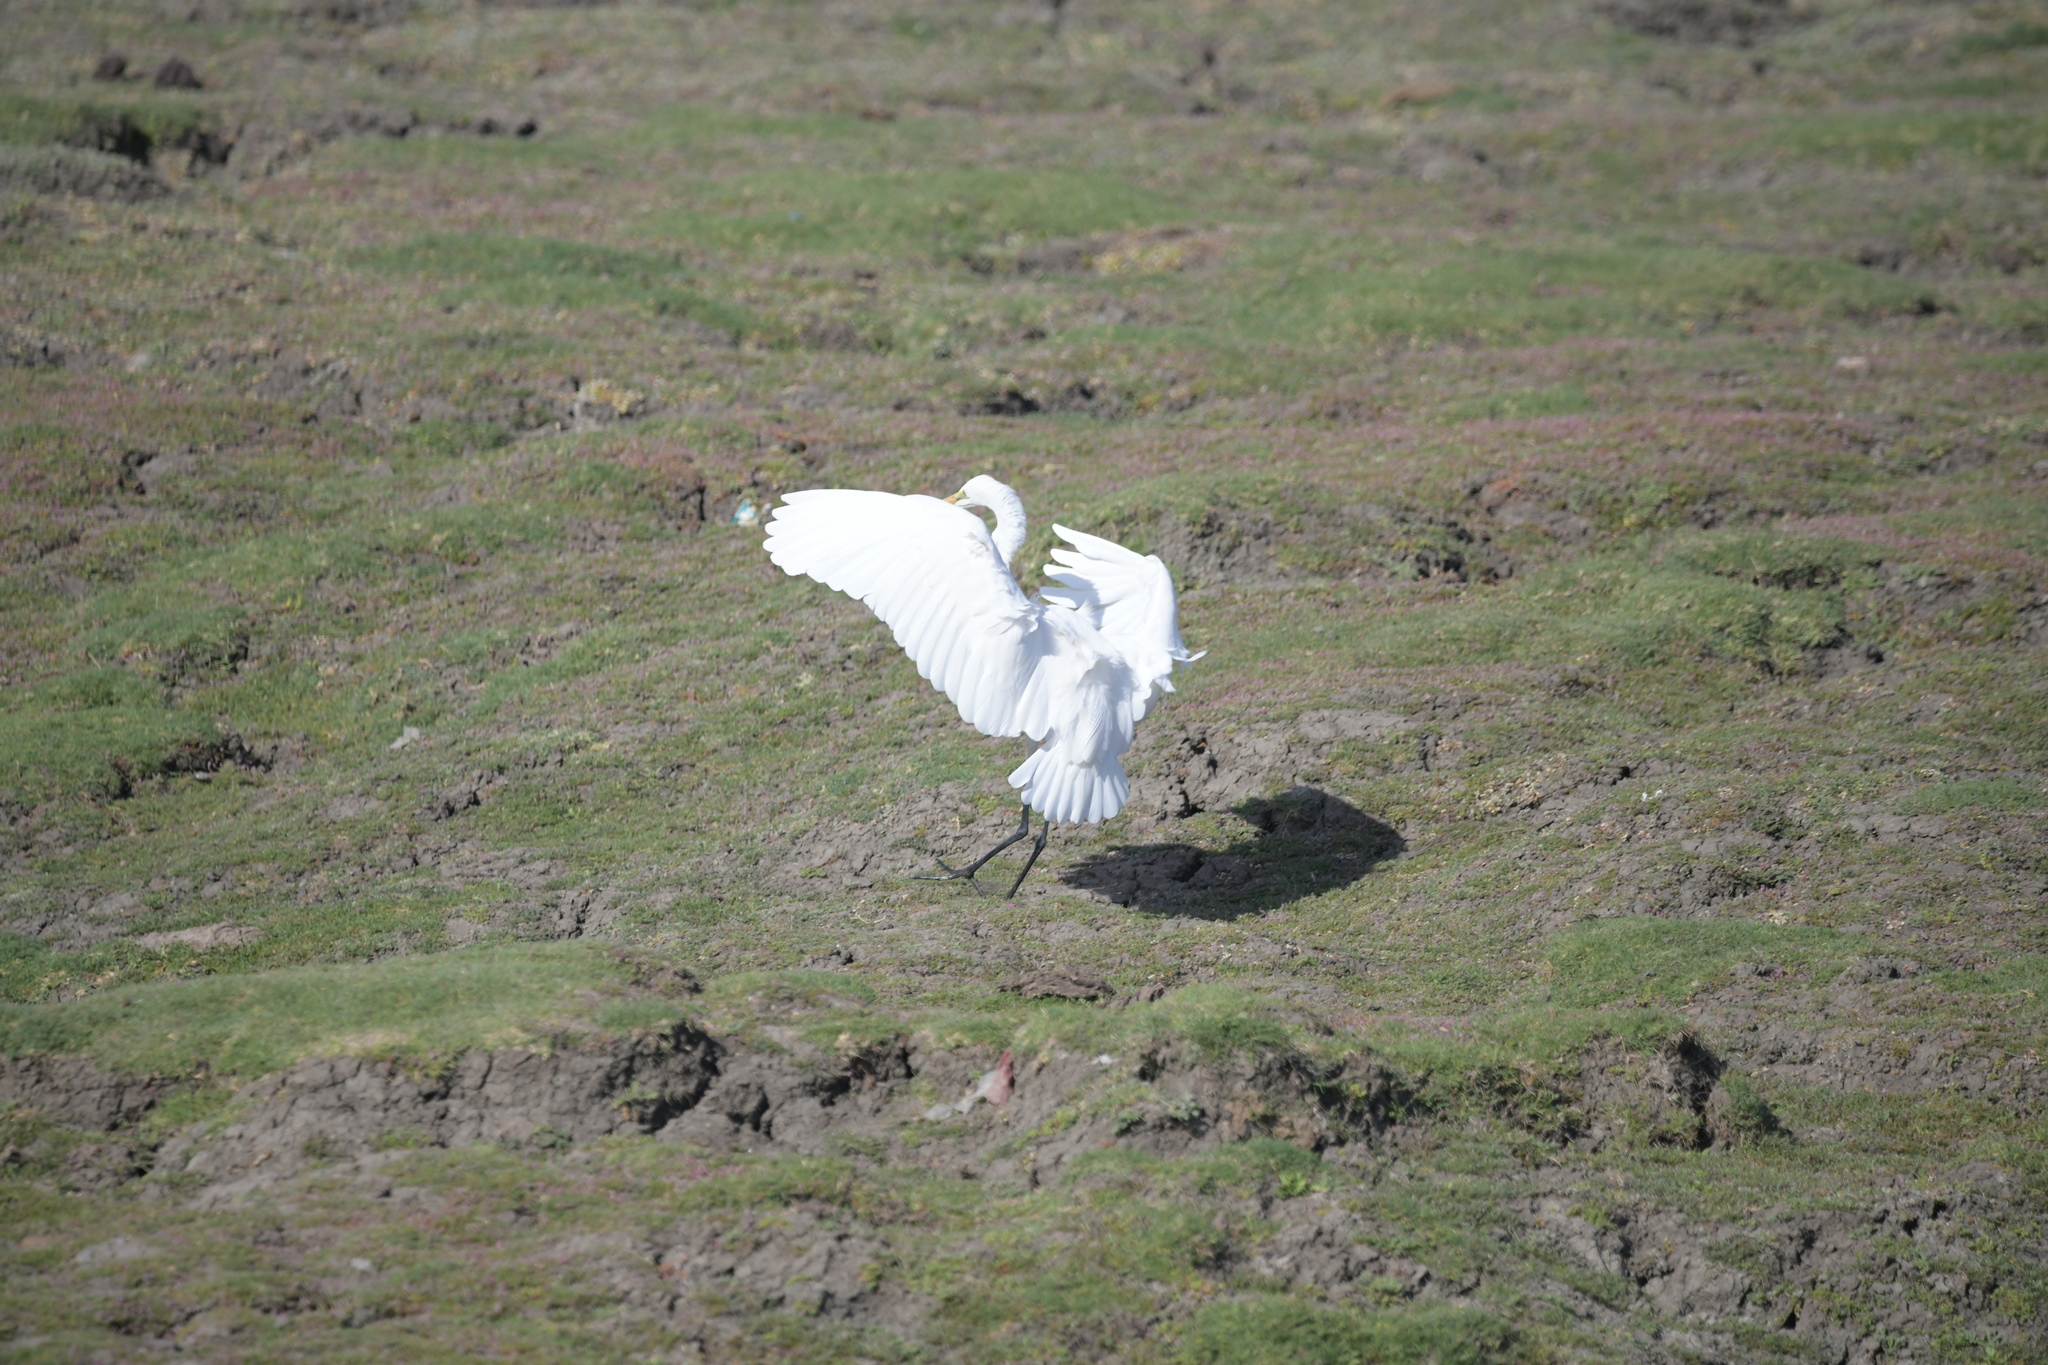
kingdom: Animalia
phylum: Chordata
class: Aves
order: Pelecaniformes
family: Ardeidae
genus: Ardea
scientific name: Ardea alba
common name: Great egret
